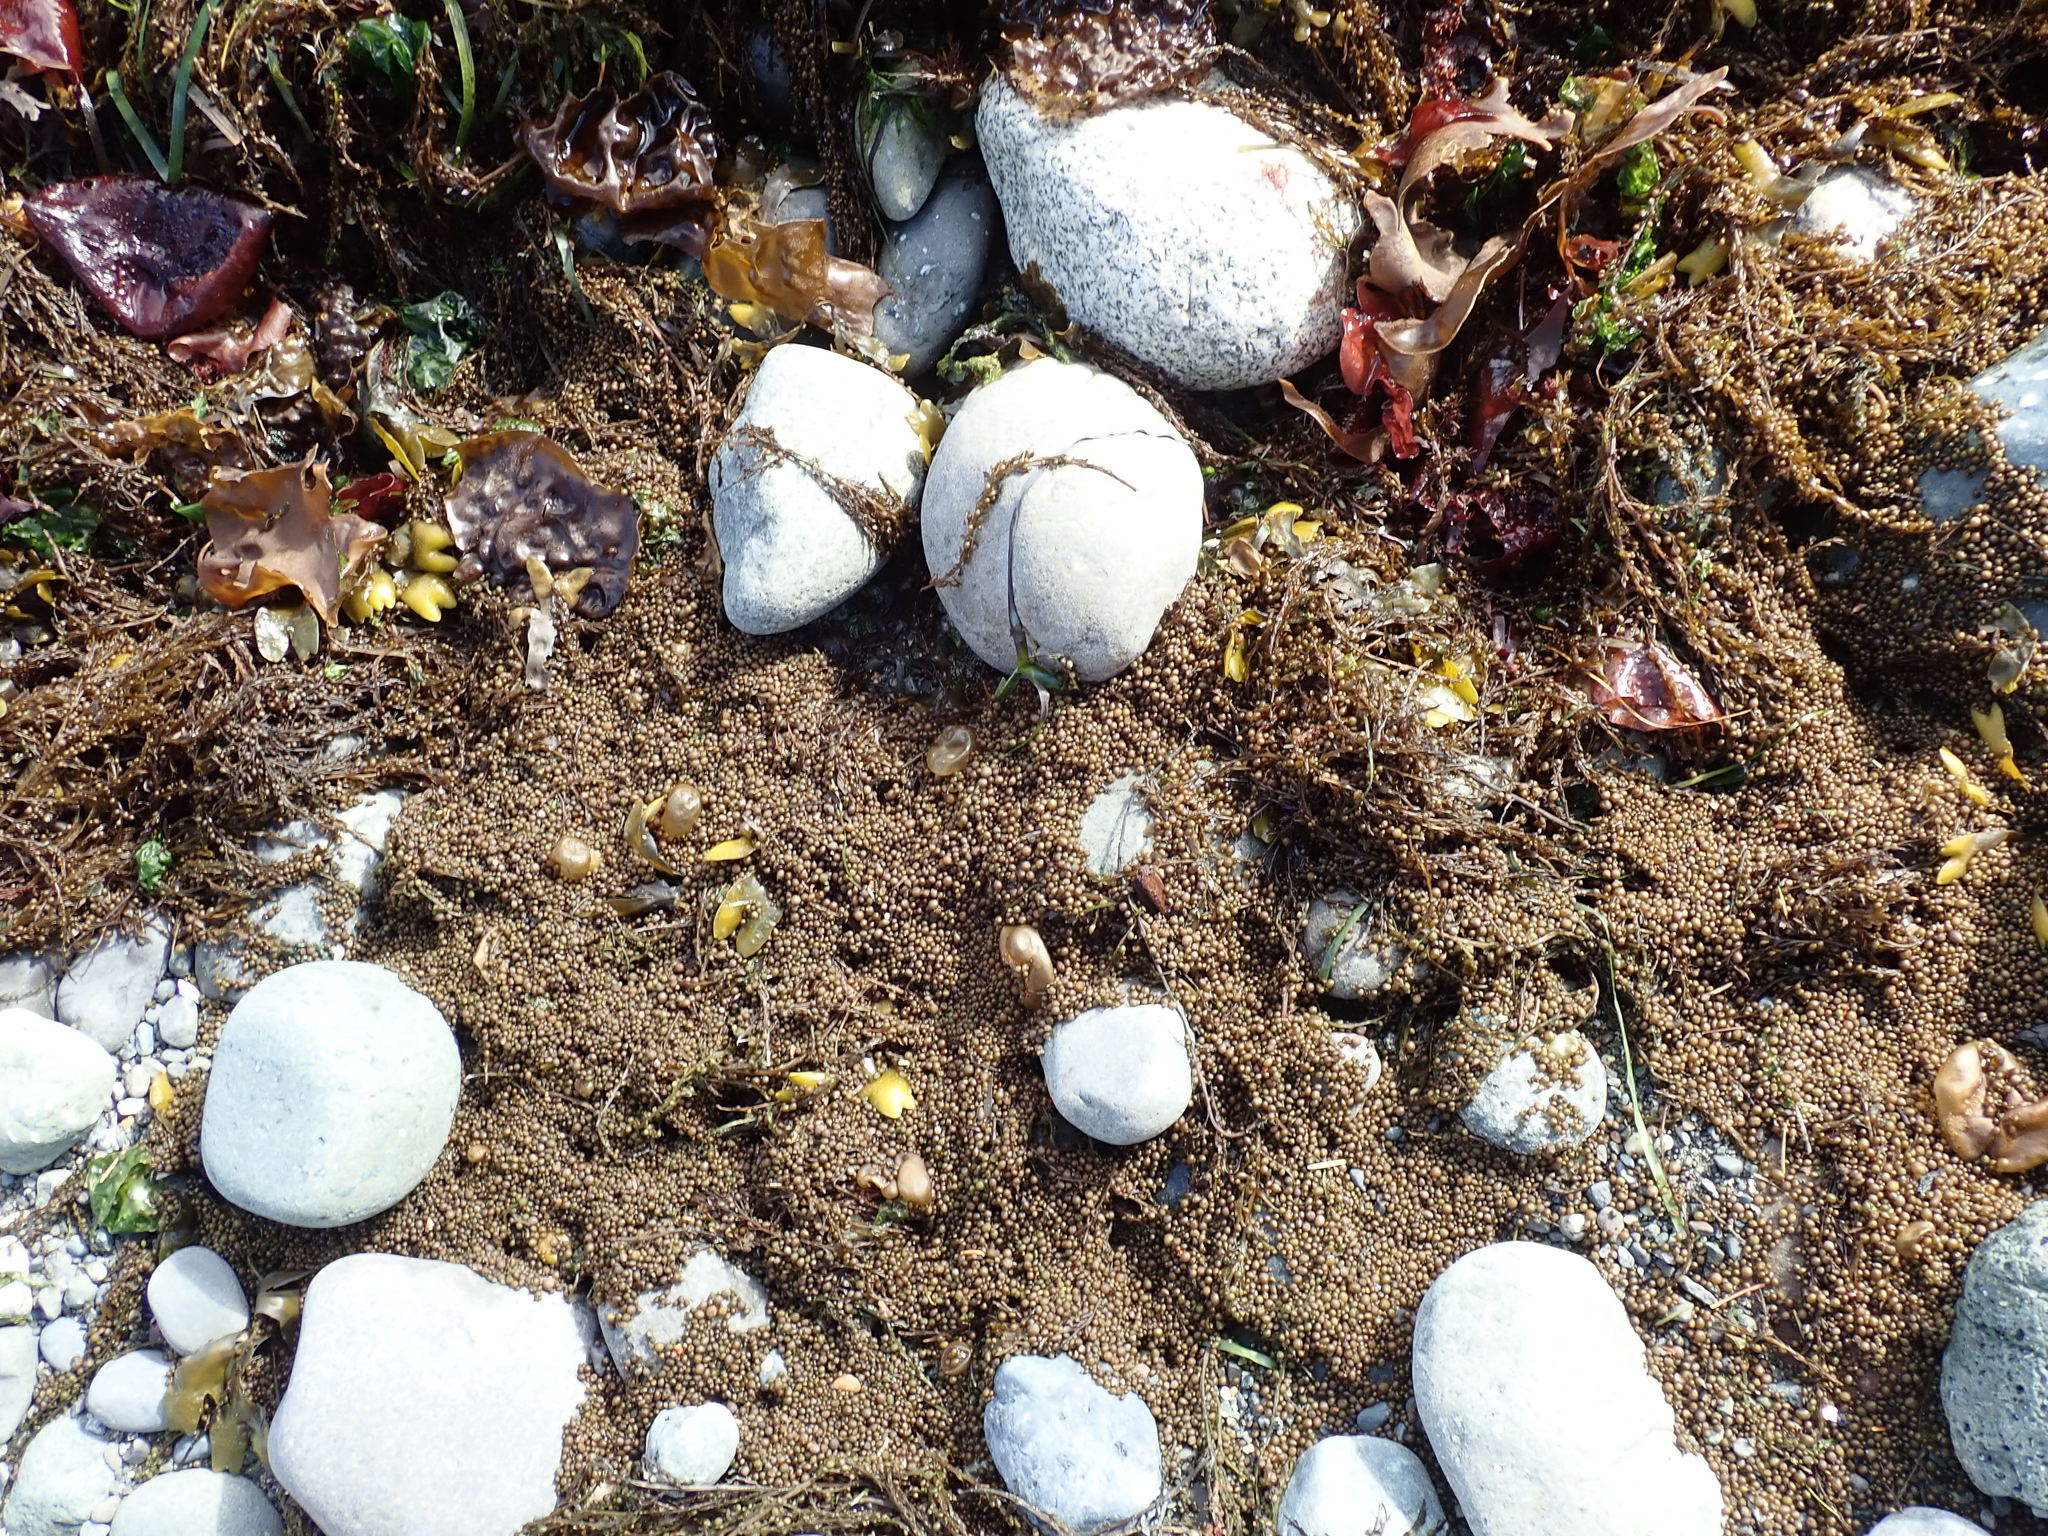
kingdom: Chromista
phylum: Ochrophyta
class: Phaeophyceae
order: Fucales
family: Sargassaceae
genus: Sargassum
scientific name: Sargassum muticum
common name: Japweed
